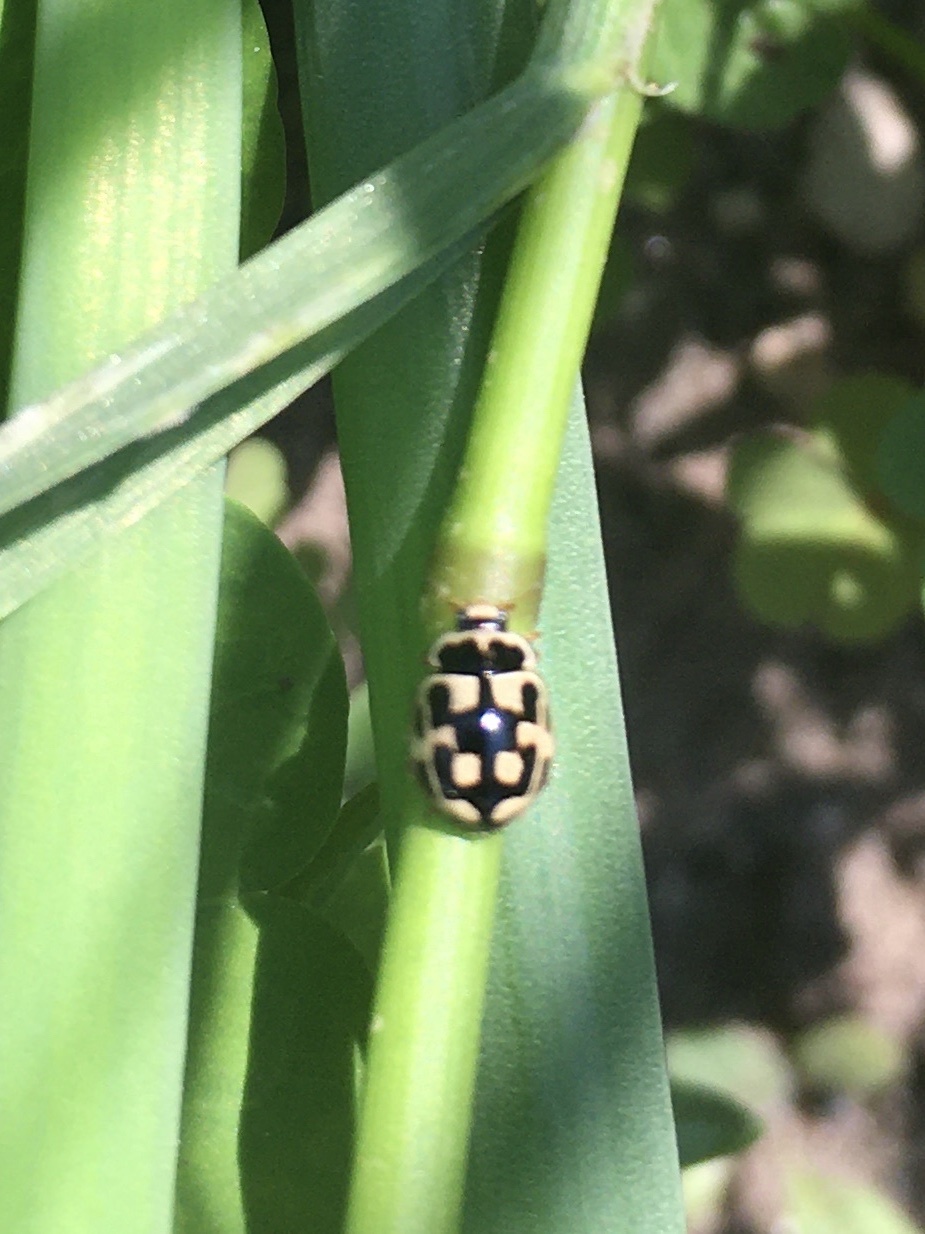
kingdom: Animalia
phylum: Arthropoda
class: Insecta
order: Coleoptera
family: Coccinellidae
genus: Propylaea
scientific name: Propylaea quatuordecimpunctata
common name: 14-spotted ladybird beetle
